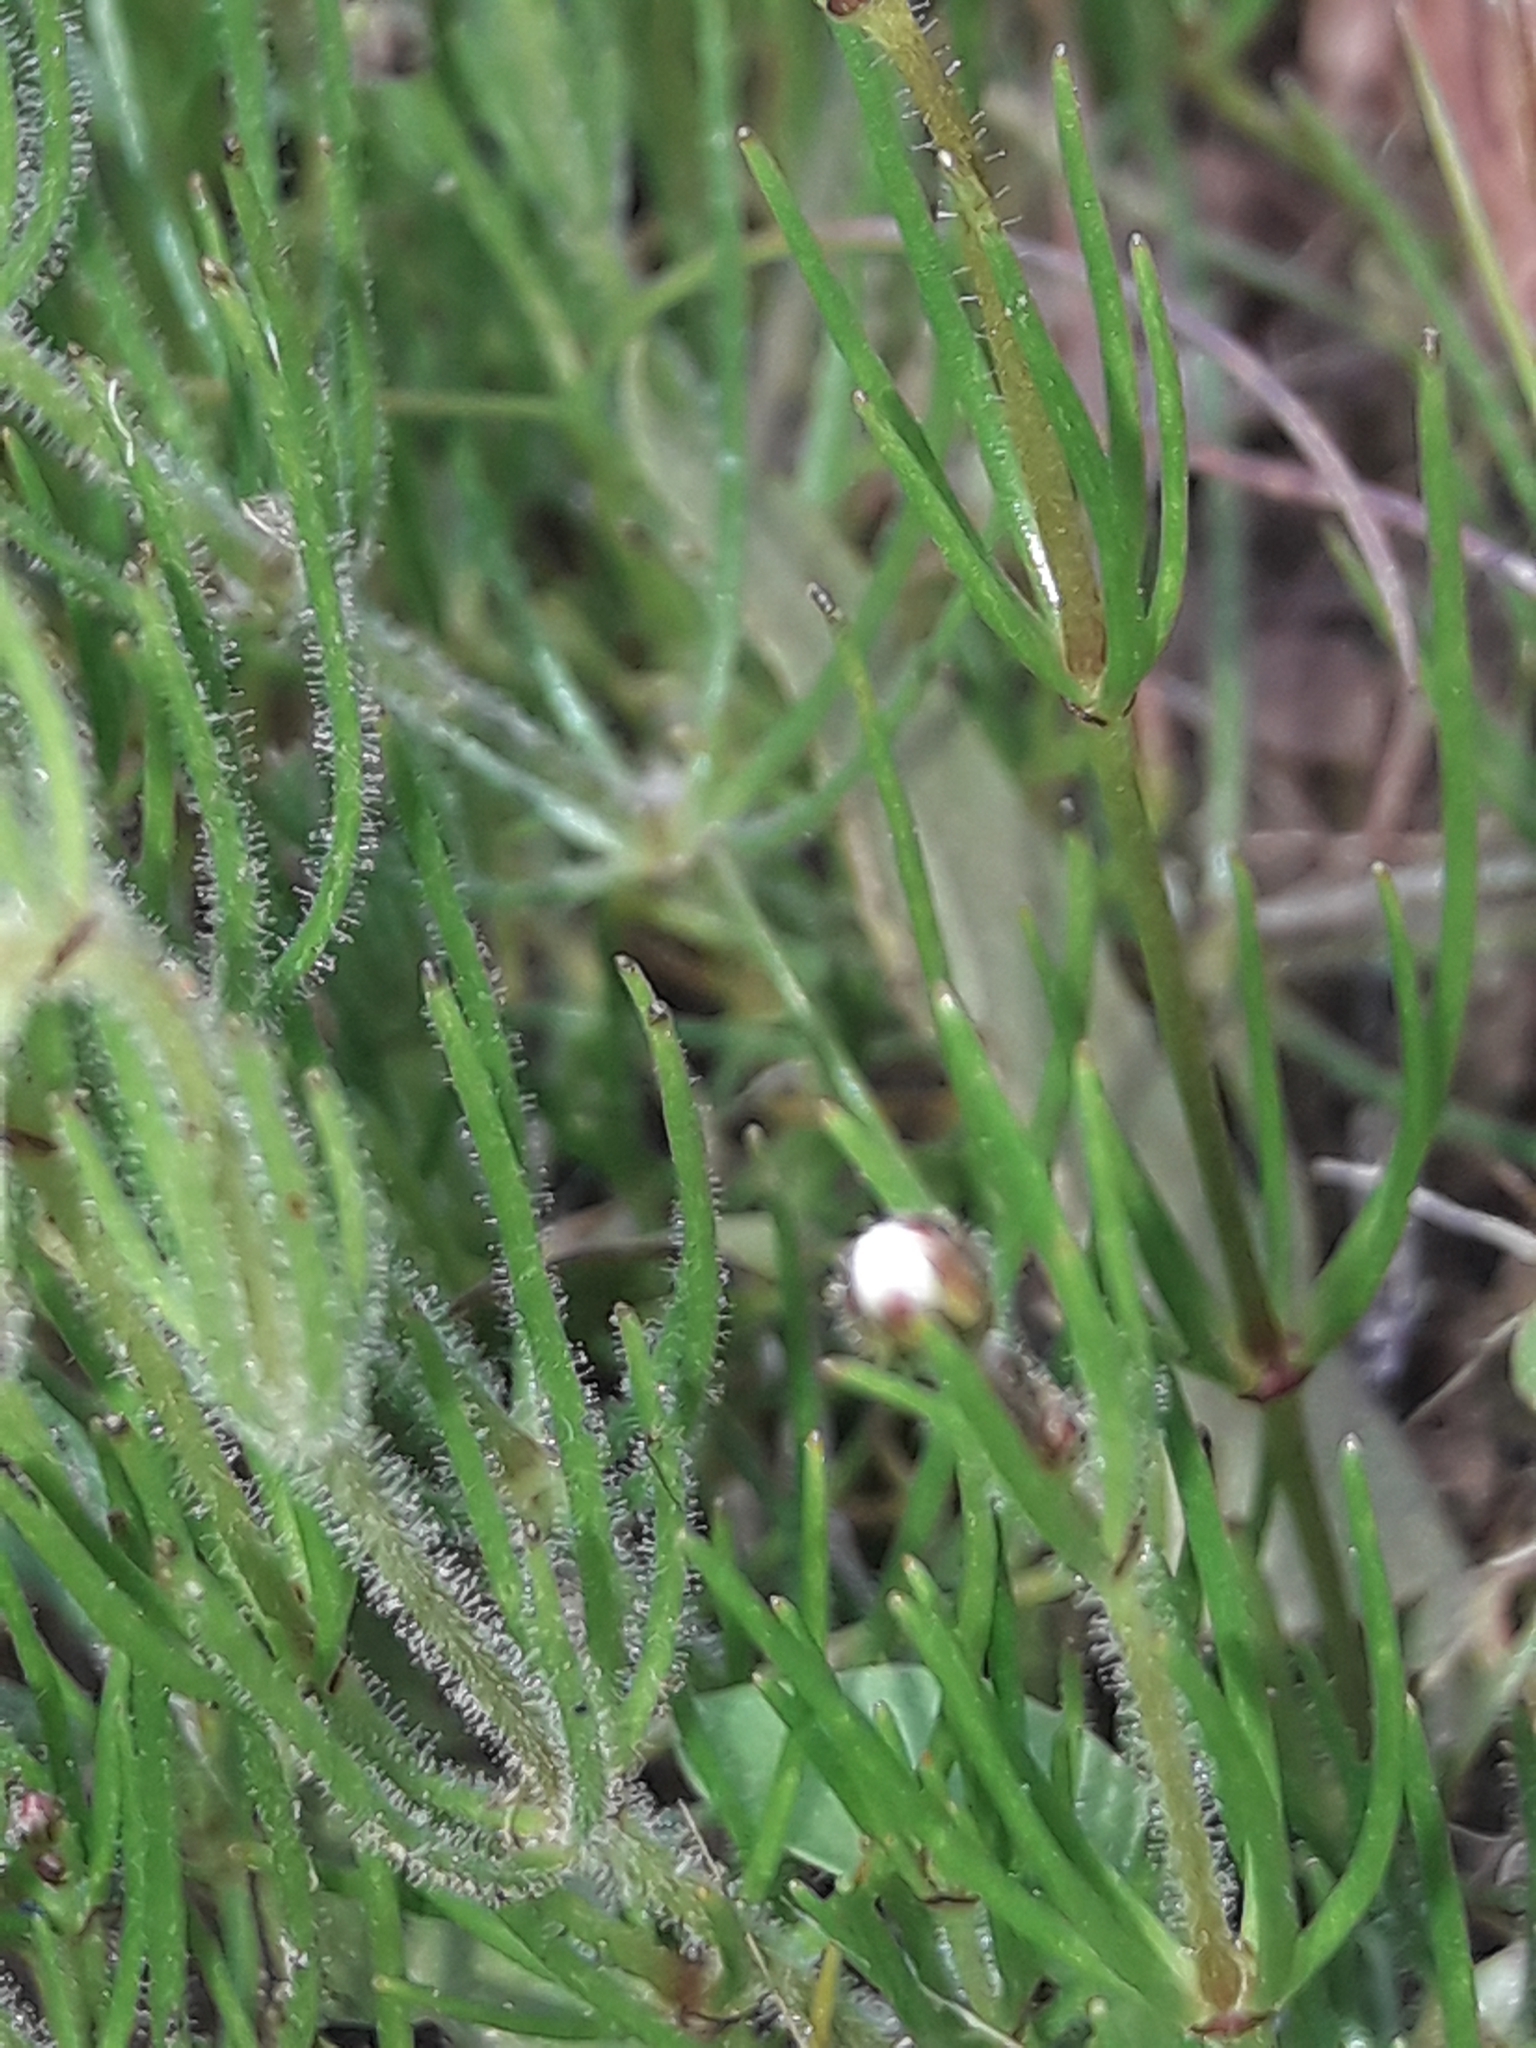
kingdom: Plantae
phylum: Tracheophyta
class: Magnoliopsida
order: Caryophyllales
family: Caryophyllaceae
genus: Spergula
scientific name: Spergula arvensis
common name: Corn spurrey
